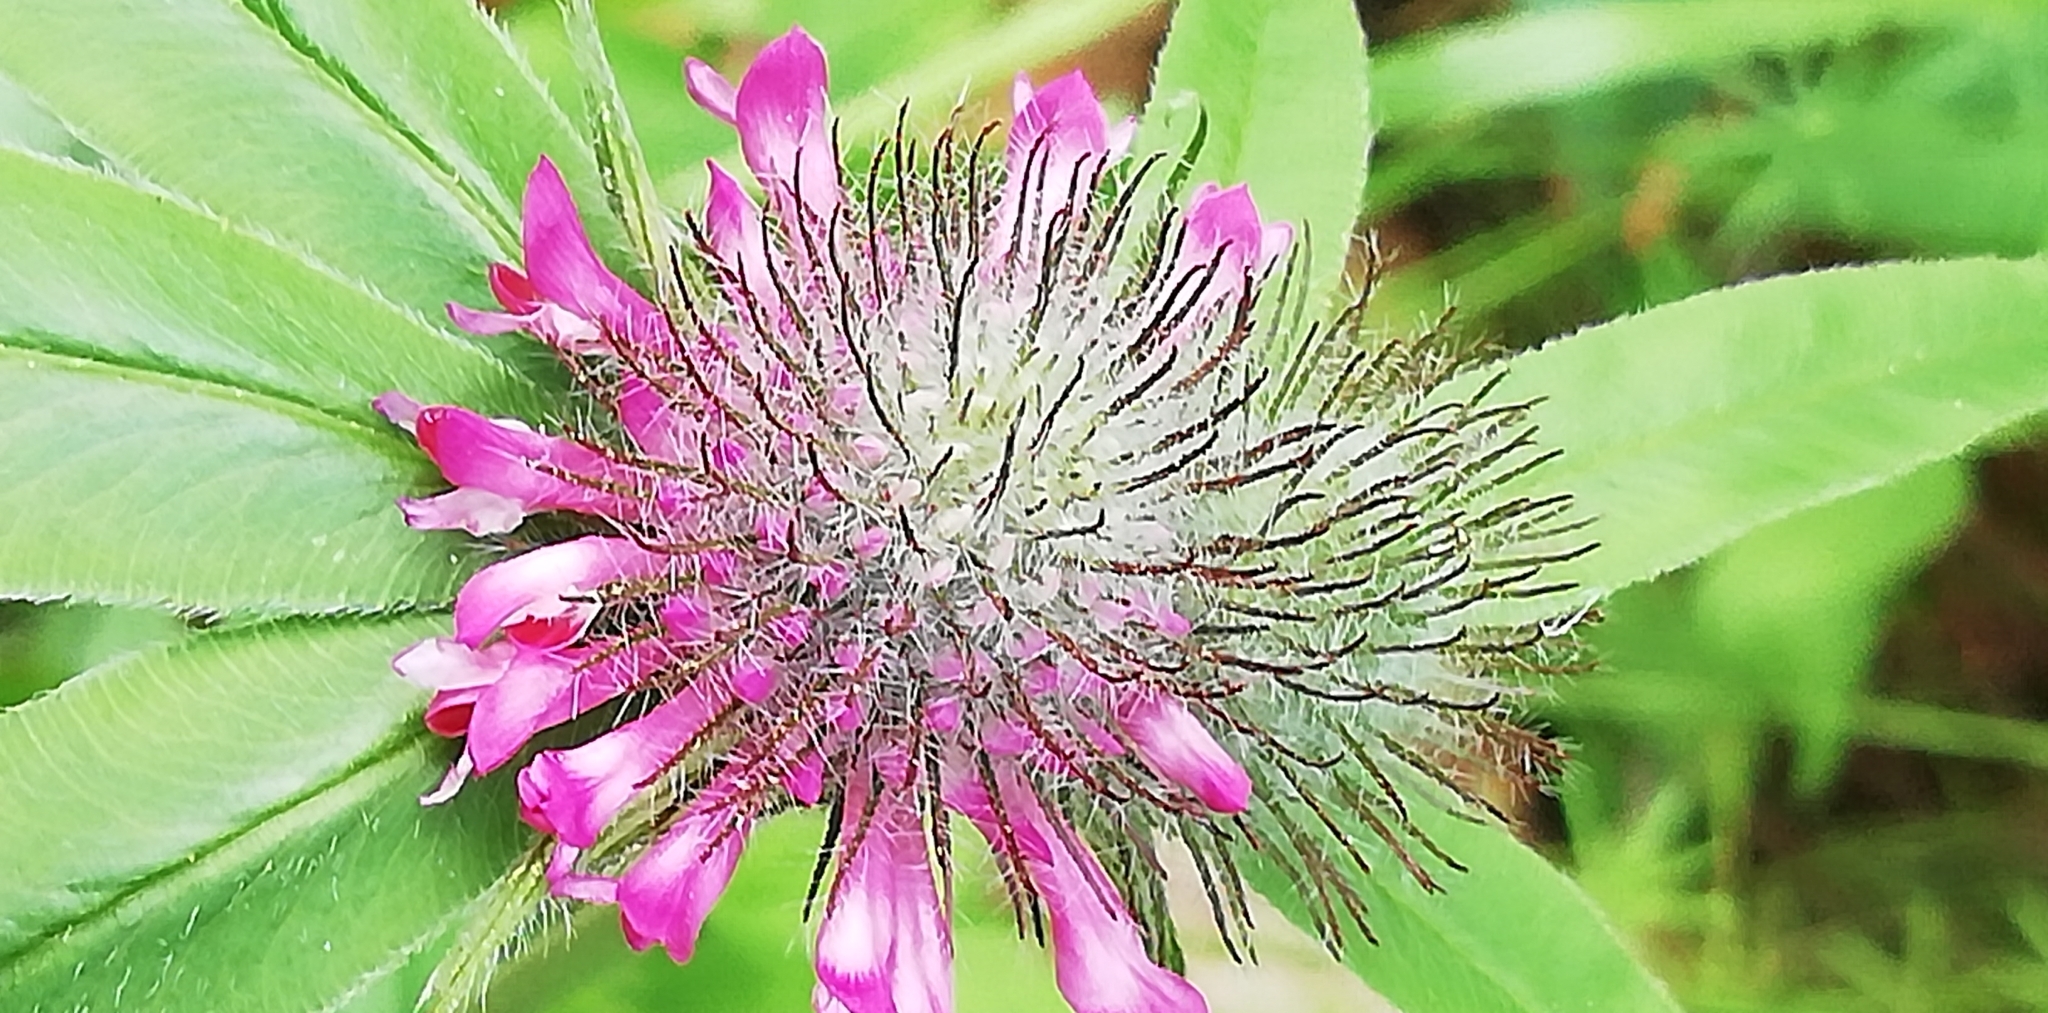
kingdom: Plantae
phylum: Tracheophyta
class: Magnoliopsida
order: Fabales
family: Fabaceae
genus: Trifolium
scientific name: Trifolium alpestre
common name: Owl-head clover
